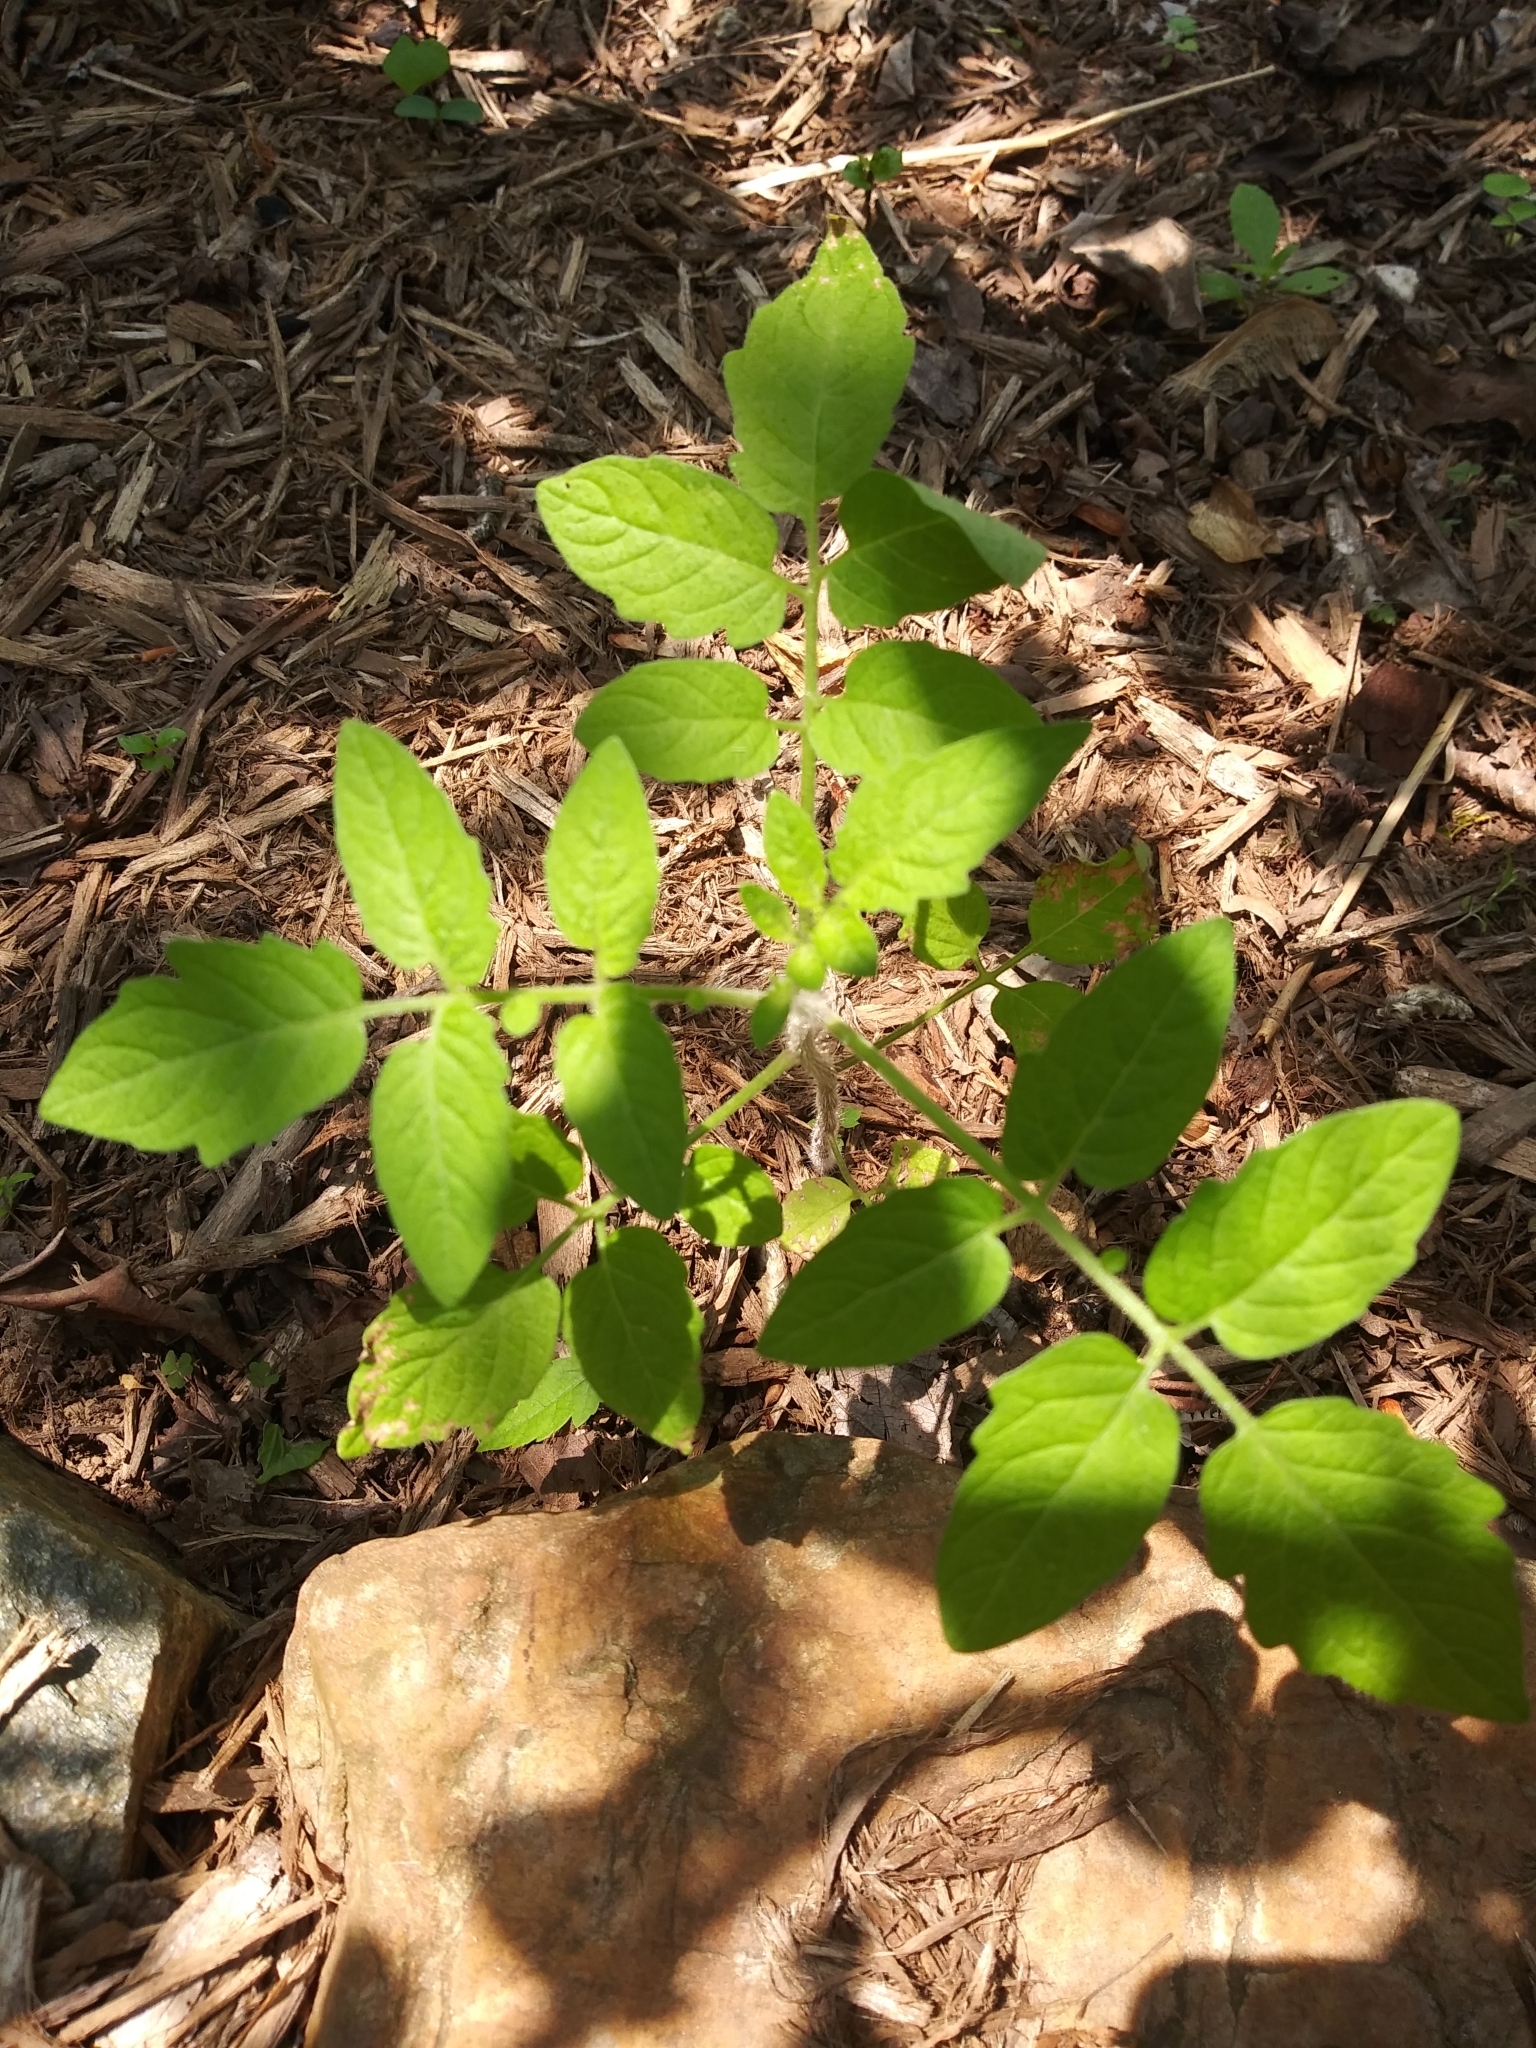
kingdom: Plantae
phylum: Tracheophyta
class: Magnoliopsida
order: Solanales
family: Solanaceae
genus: Solanum
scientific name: Solanum lycopersicum
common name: Garden tomato
